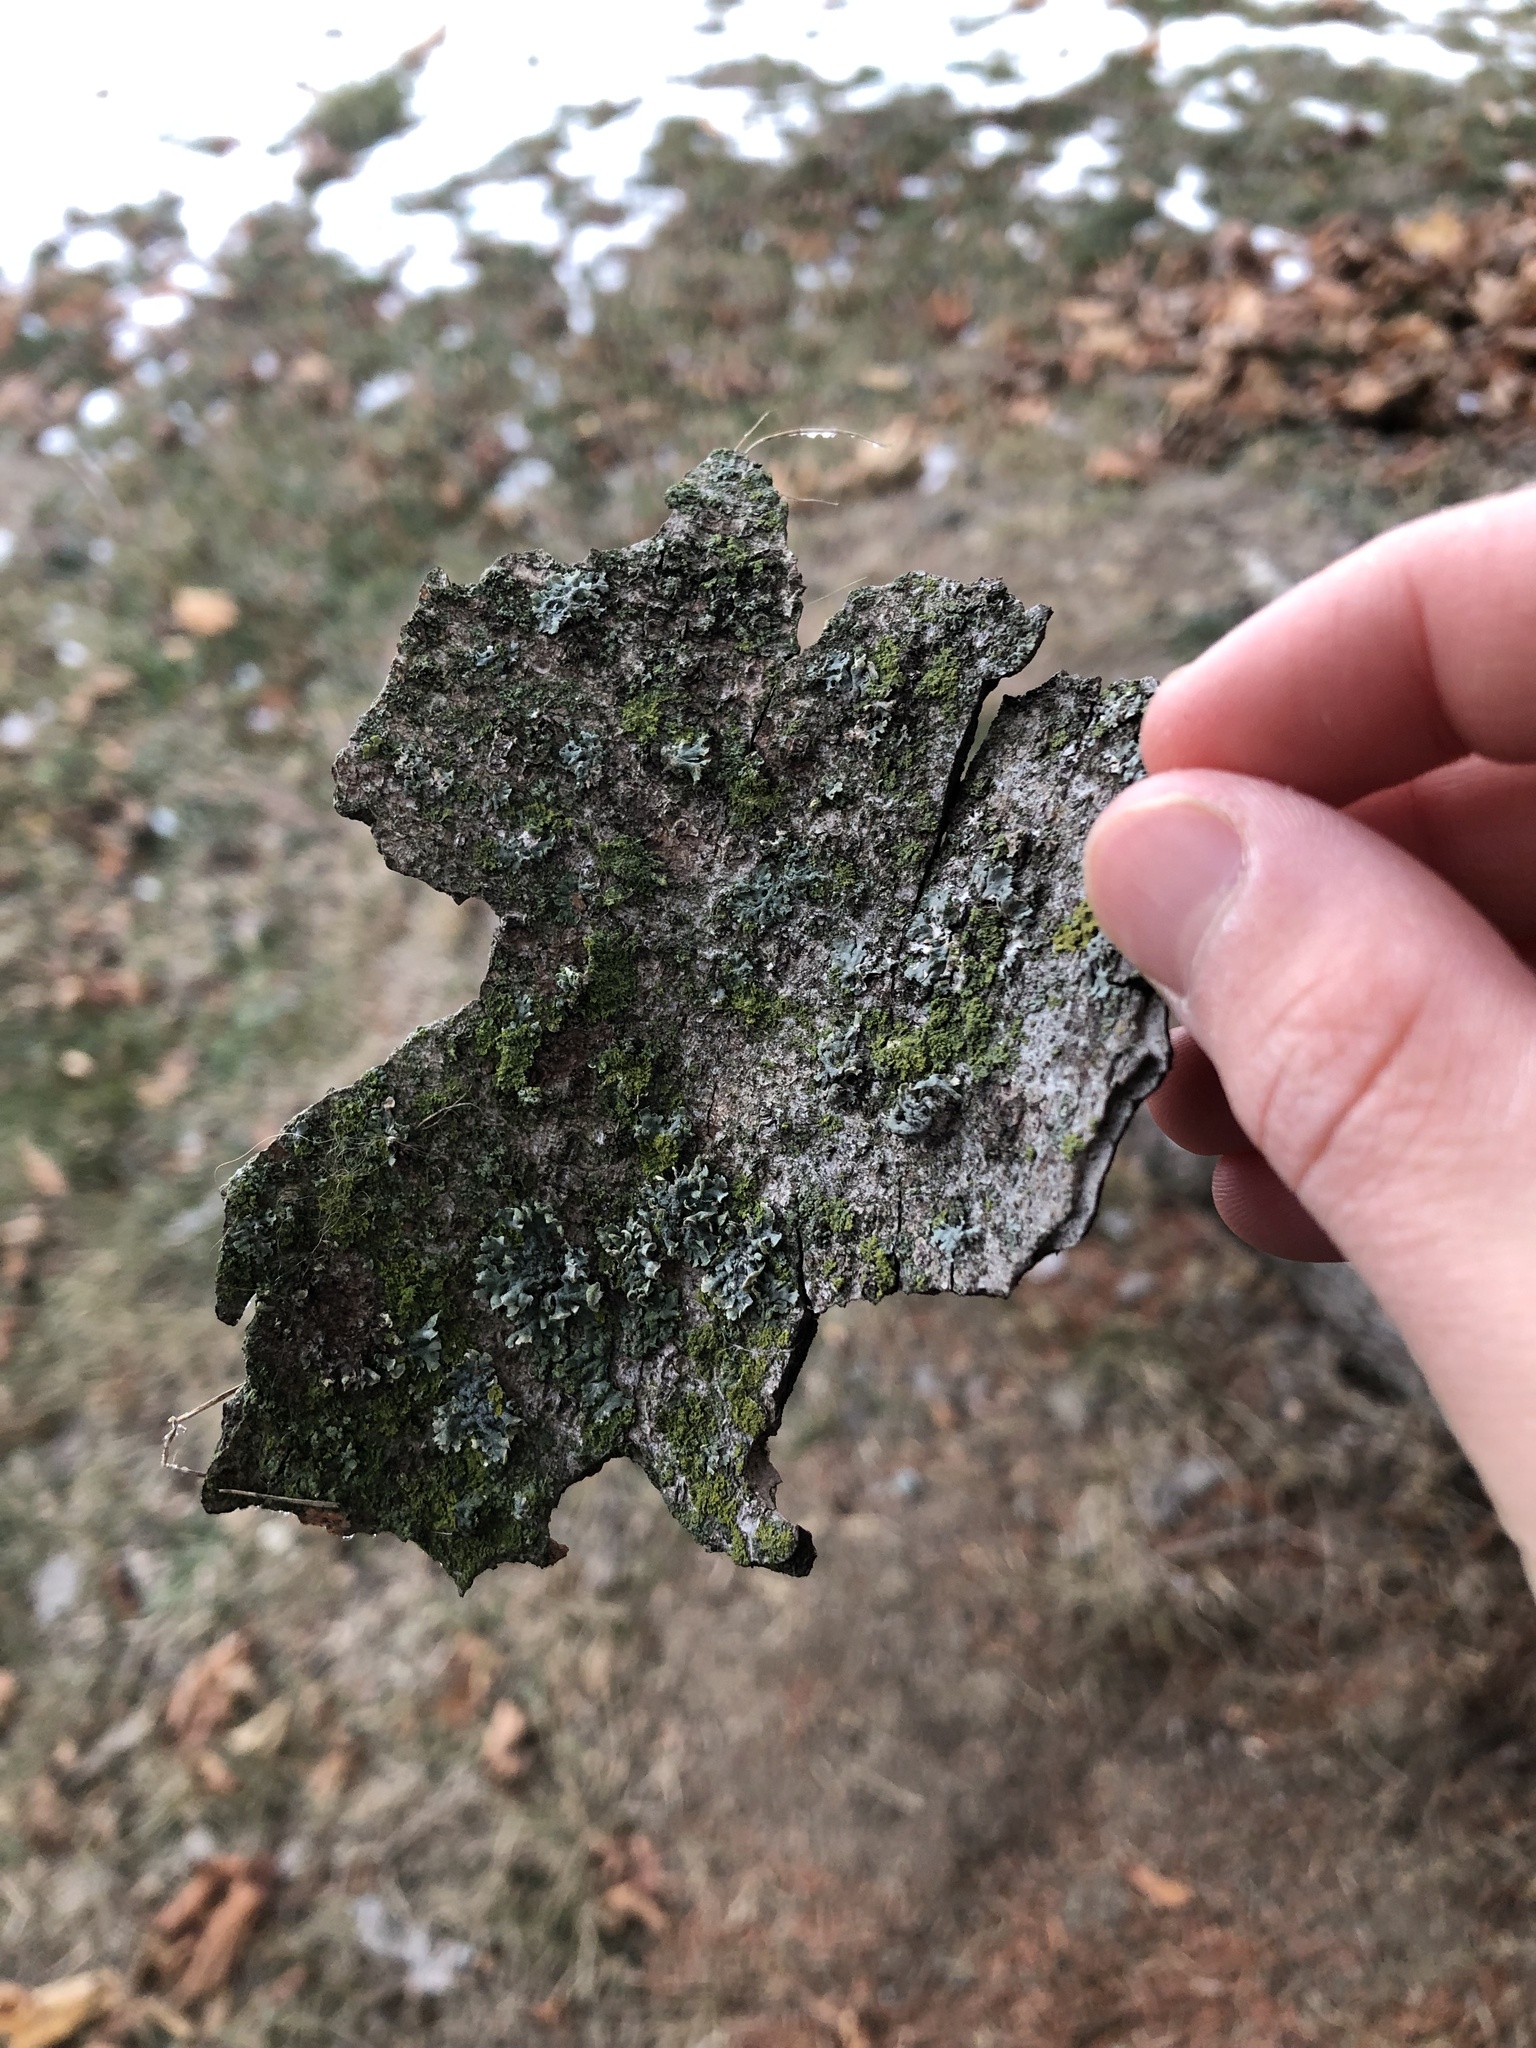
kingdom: Fungi
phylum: Ascomycota
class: Lecanoromycetes
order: Caliciales
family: Physciaceae
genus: Physcia
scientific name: Physcia adscendens
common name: Hooded rosette lichen
